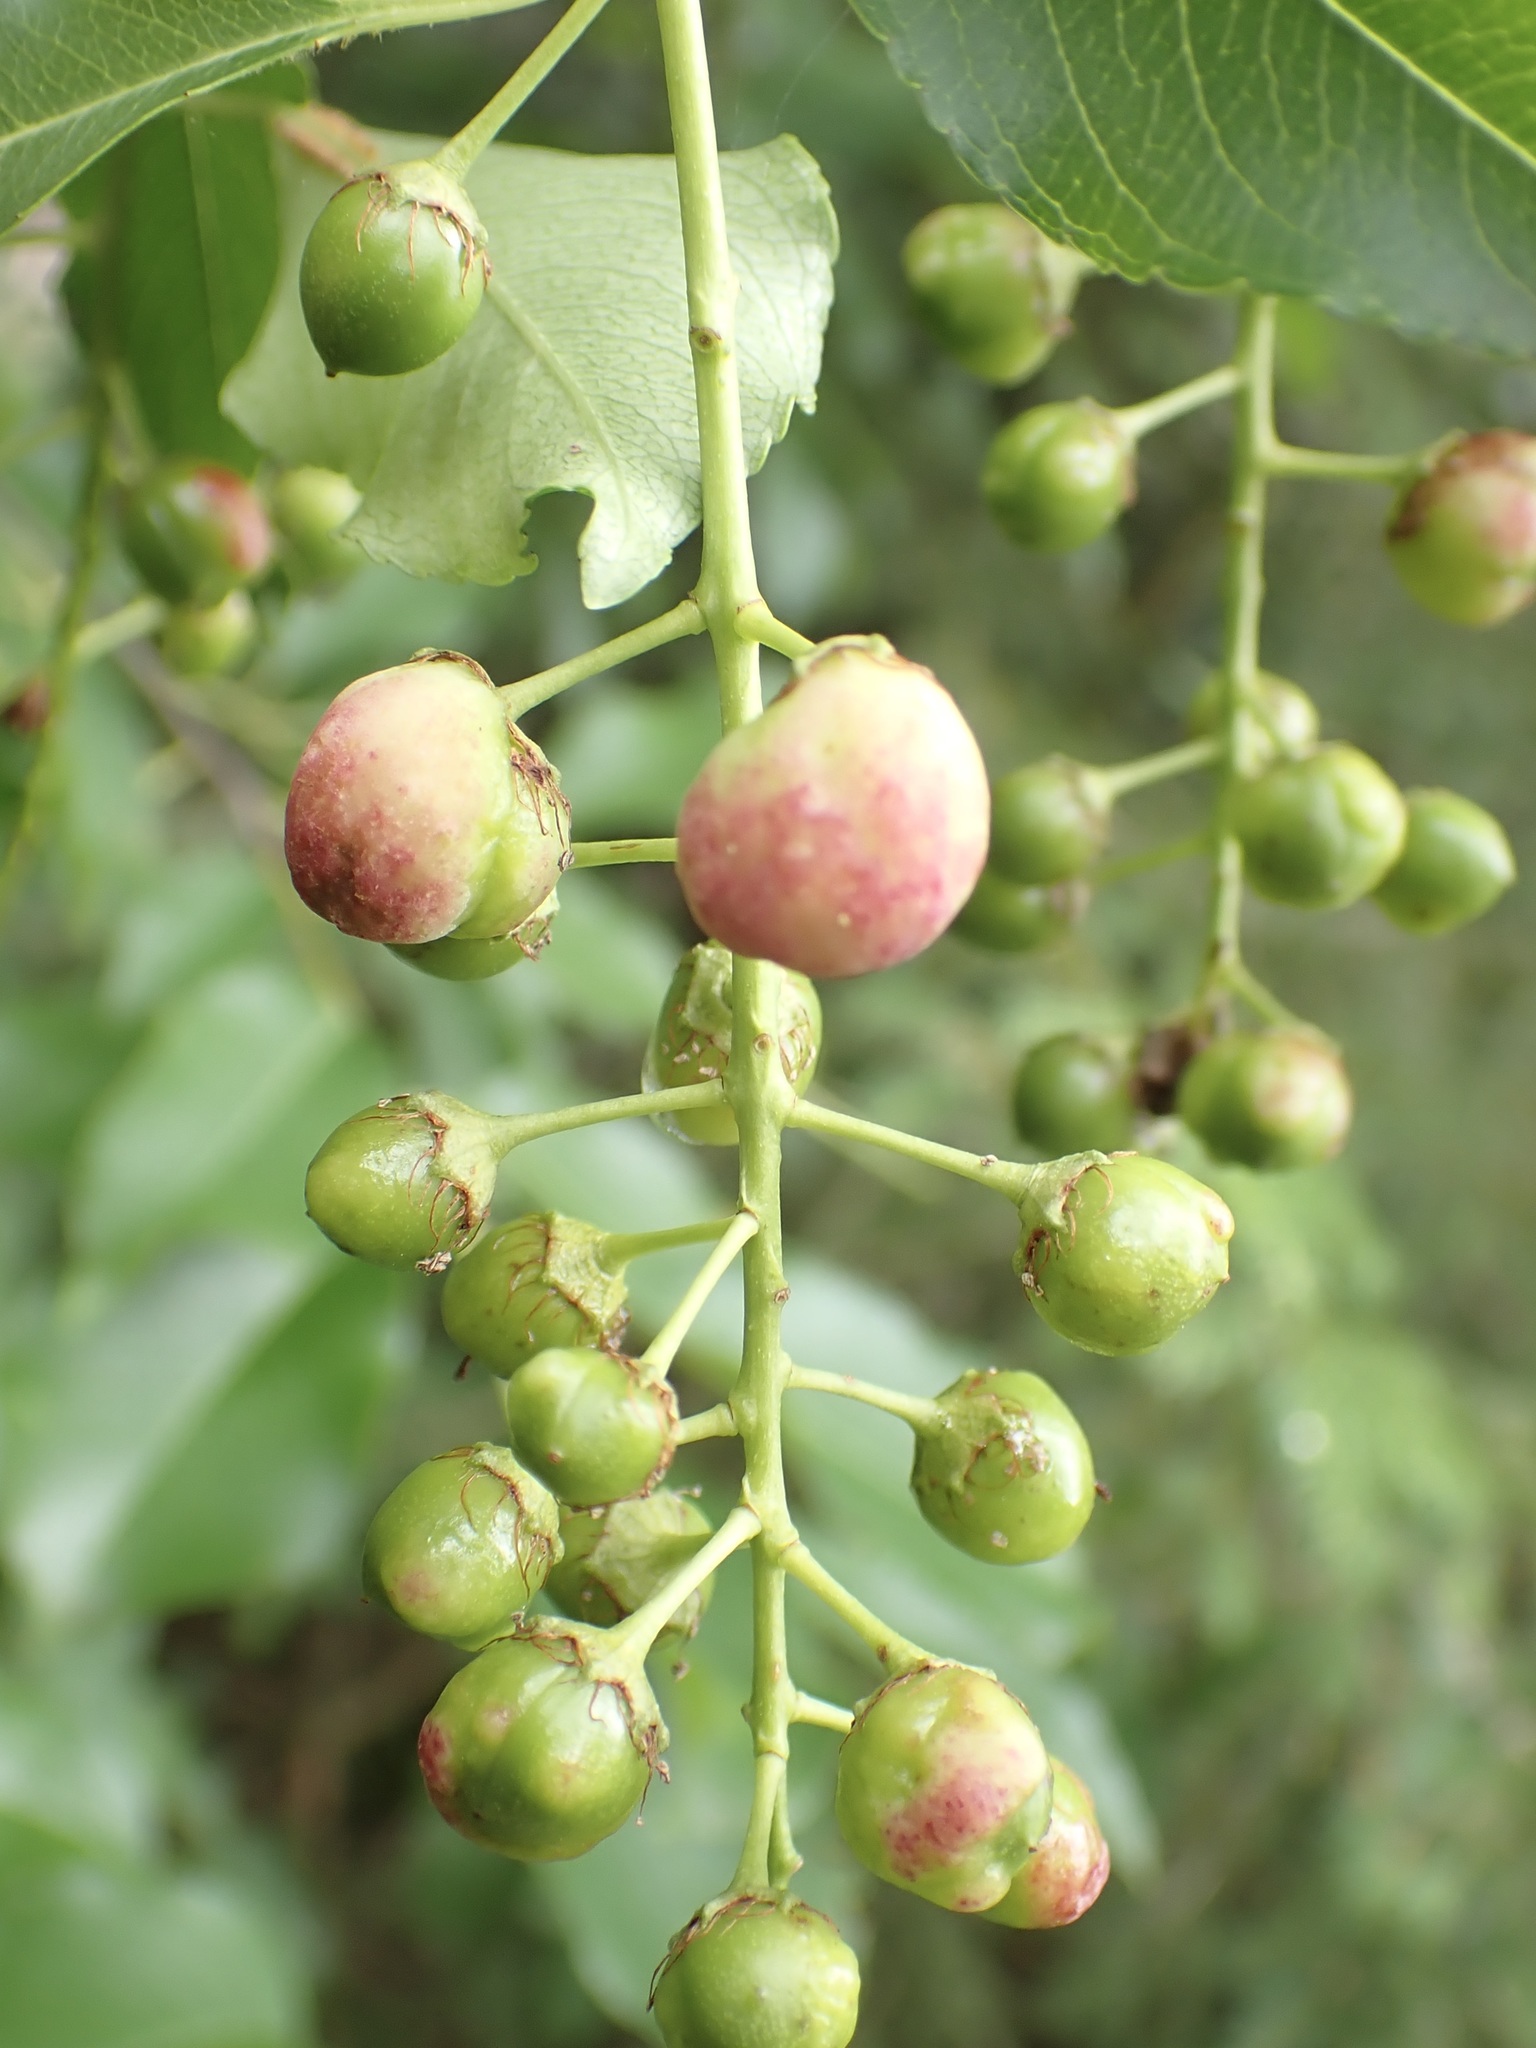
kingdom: Fungi
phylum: Ascomycota
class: Taphrinomycetes
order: Taphrinales
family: Taphrinaceae
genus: Taphrina
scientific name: Taphrina farlowii
